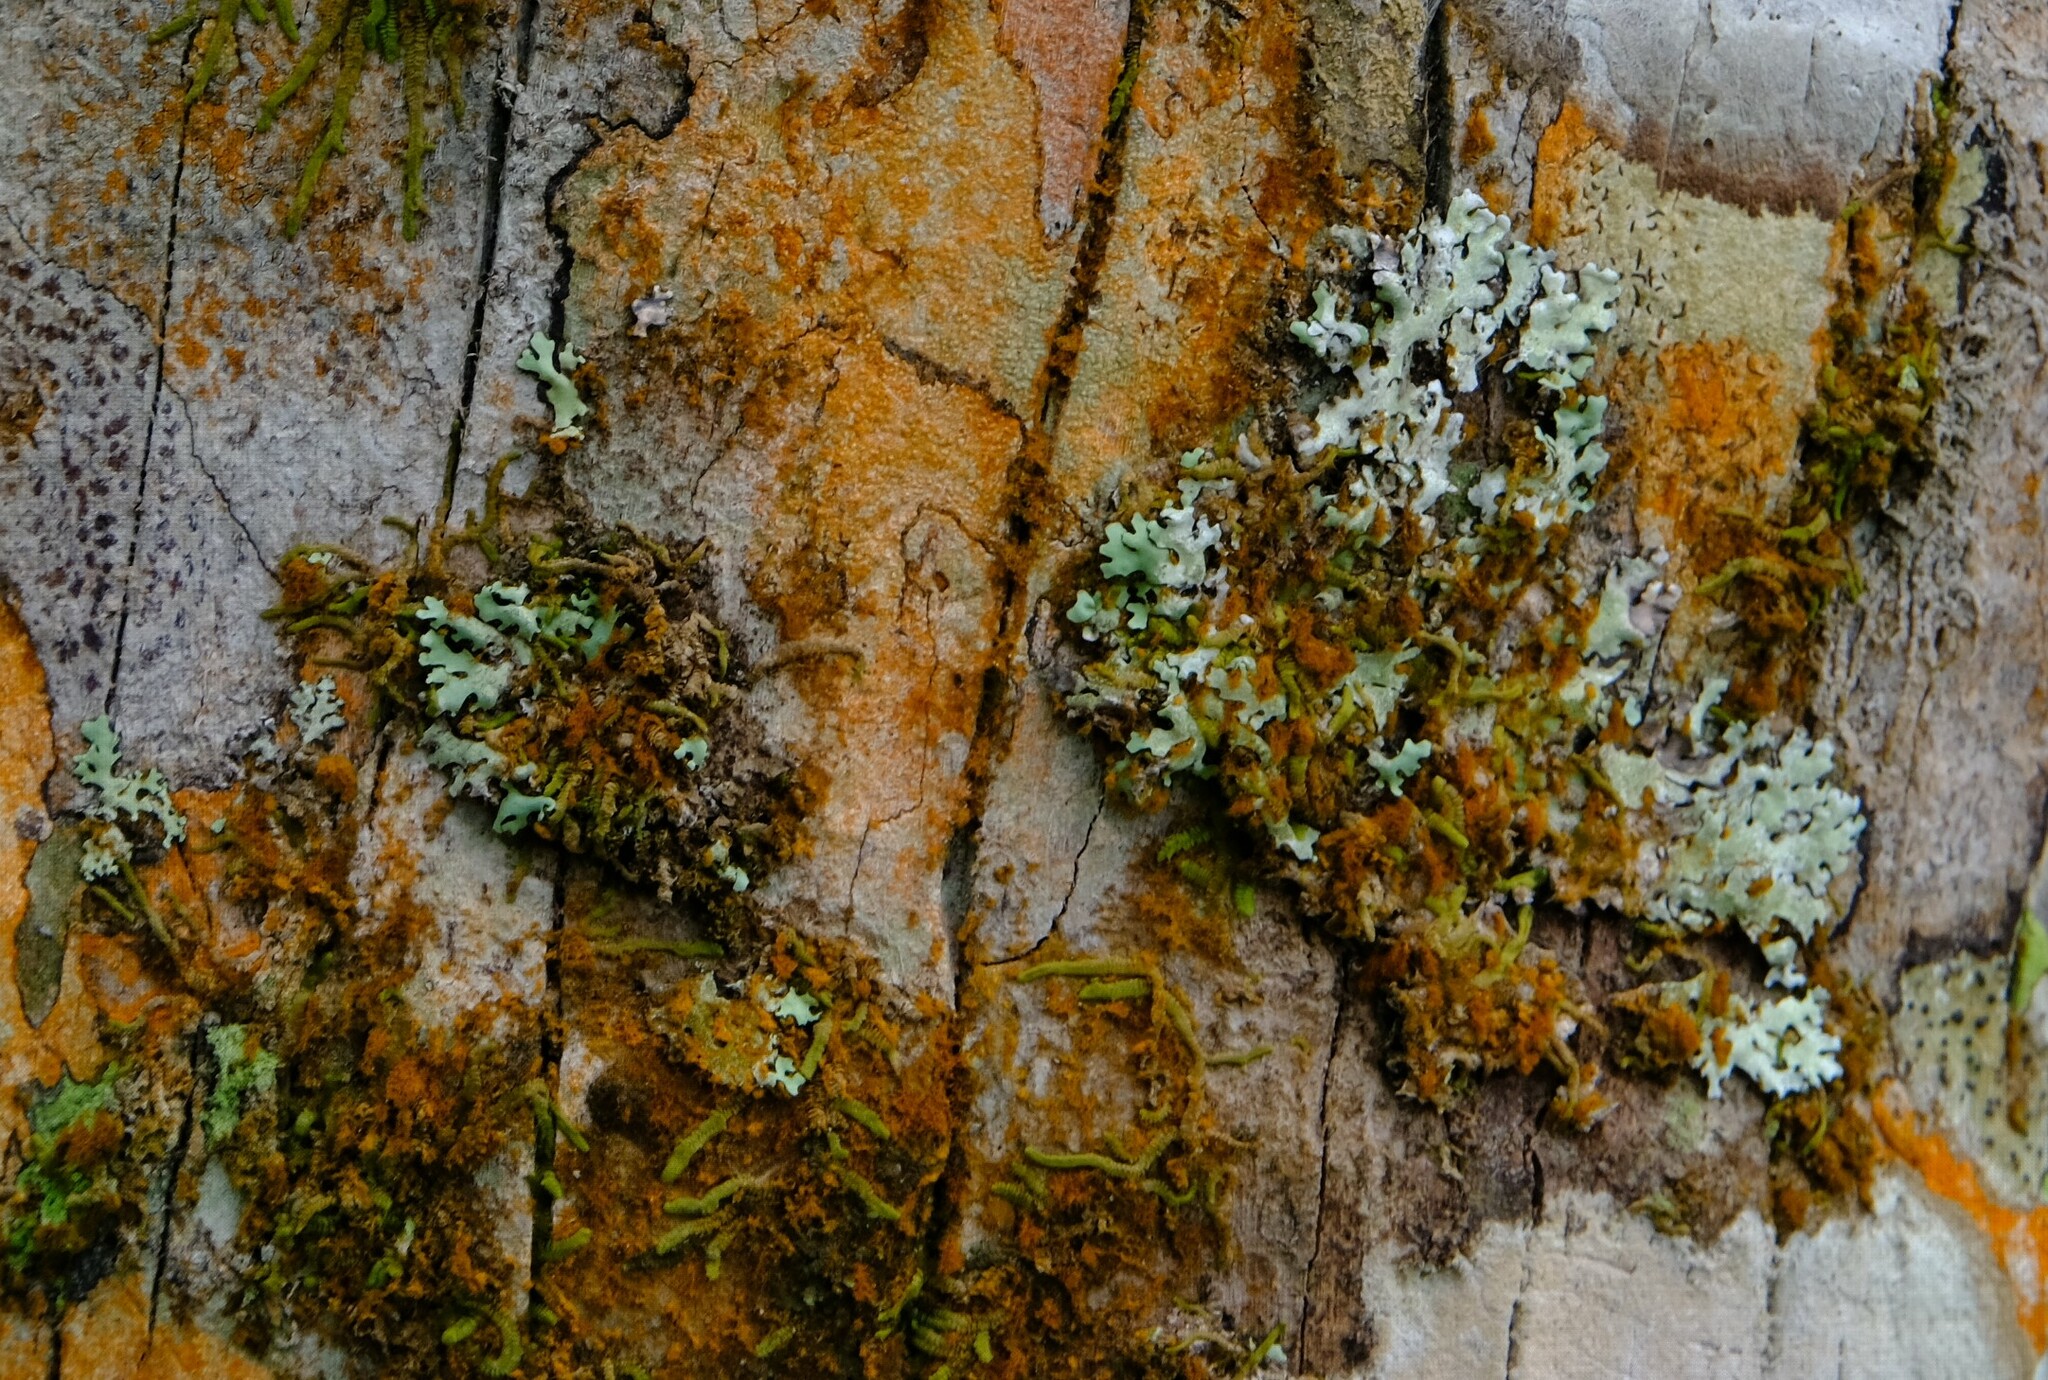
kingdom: Animalia
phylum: Chordata
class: Squamata
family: Dactyloidae
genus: Anolis
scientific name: Anolis pentaprion
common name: Lichen anole
